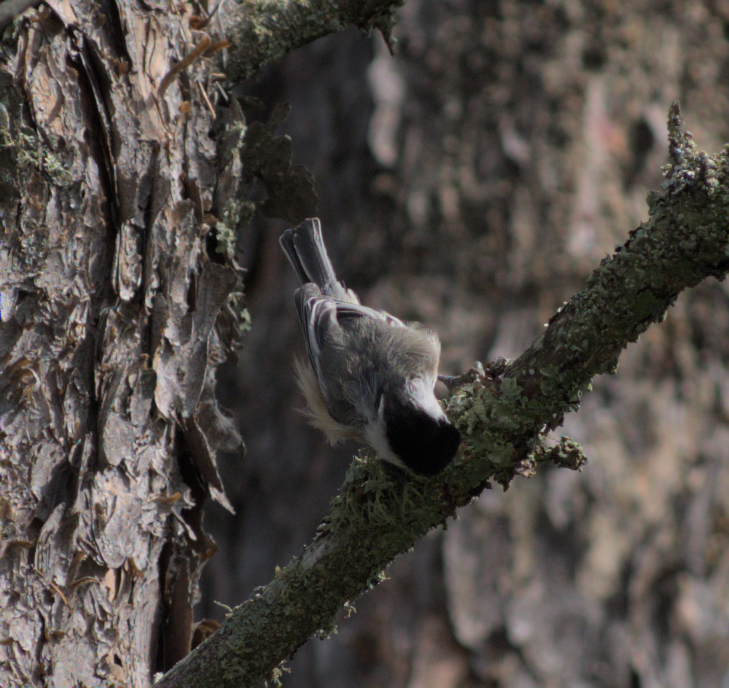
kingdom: Animalia
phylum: Chordata
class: Aves
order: Passeriformes
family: Paridae
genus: Poecile
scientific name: Poecile atricapillus
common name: Black-capped chickadee
